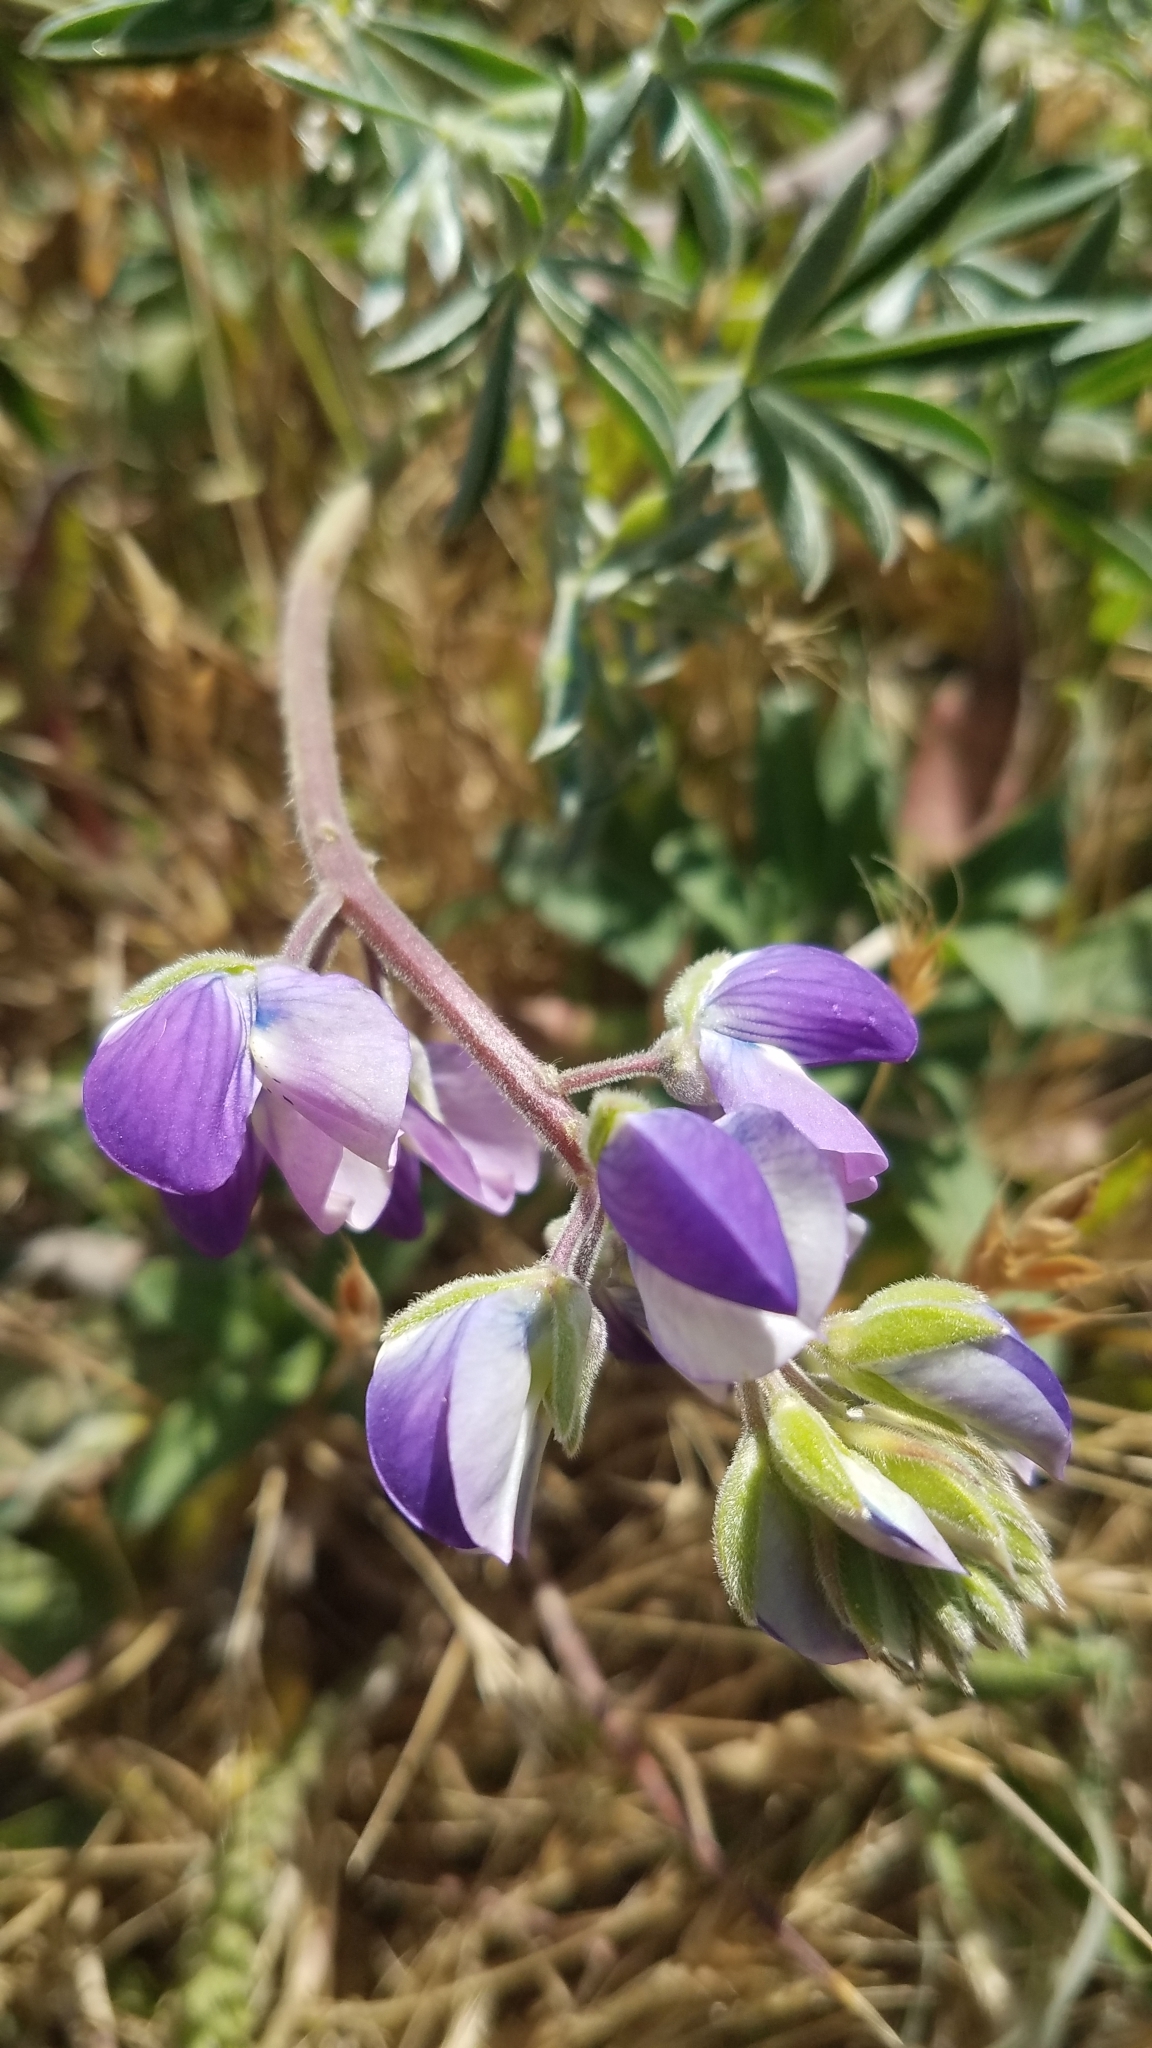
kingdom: Plantae
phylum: Tracheophyta
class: Magnoliopsida
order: Fabales
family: Fabaceae
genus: Lupinus
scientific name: Lupinus variicolor
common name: Lindley's varied lupine
